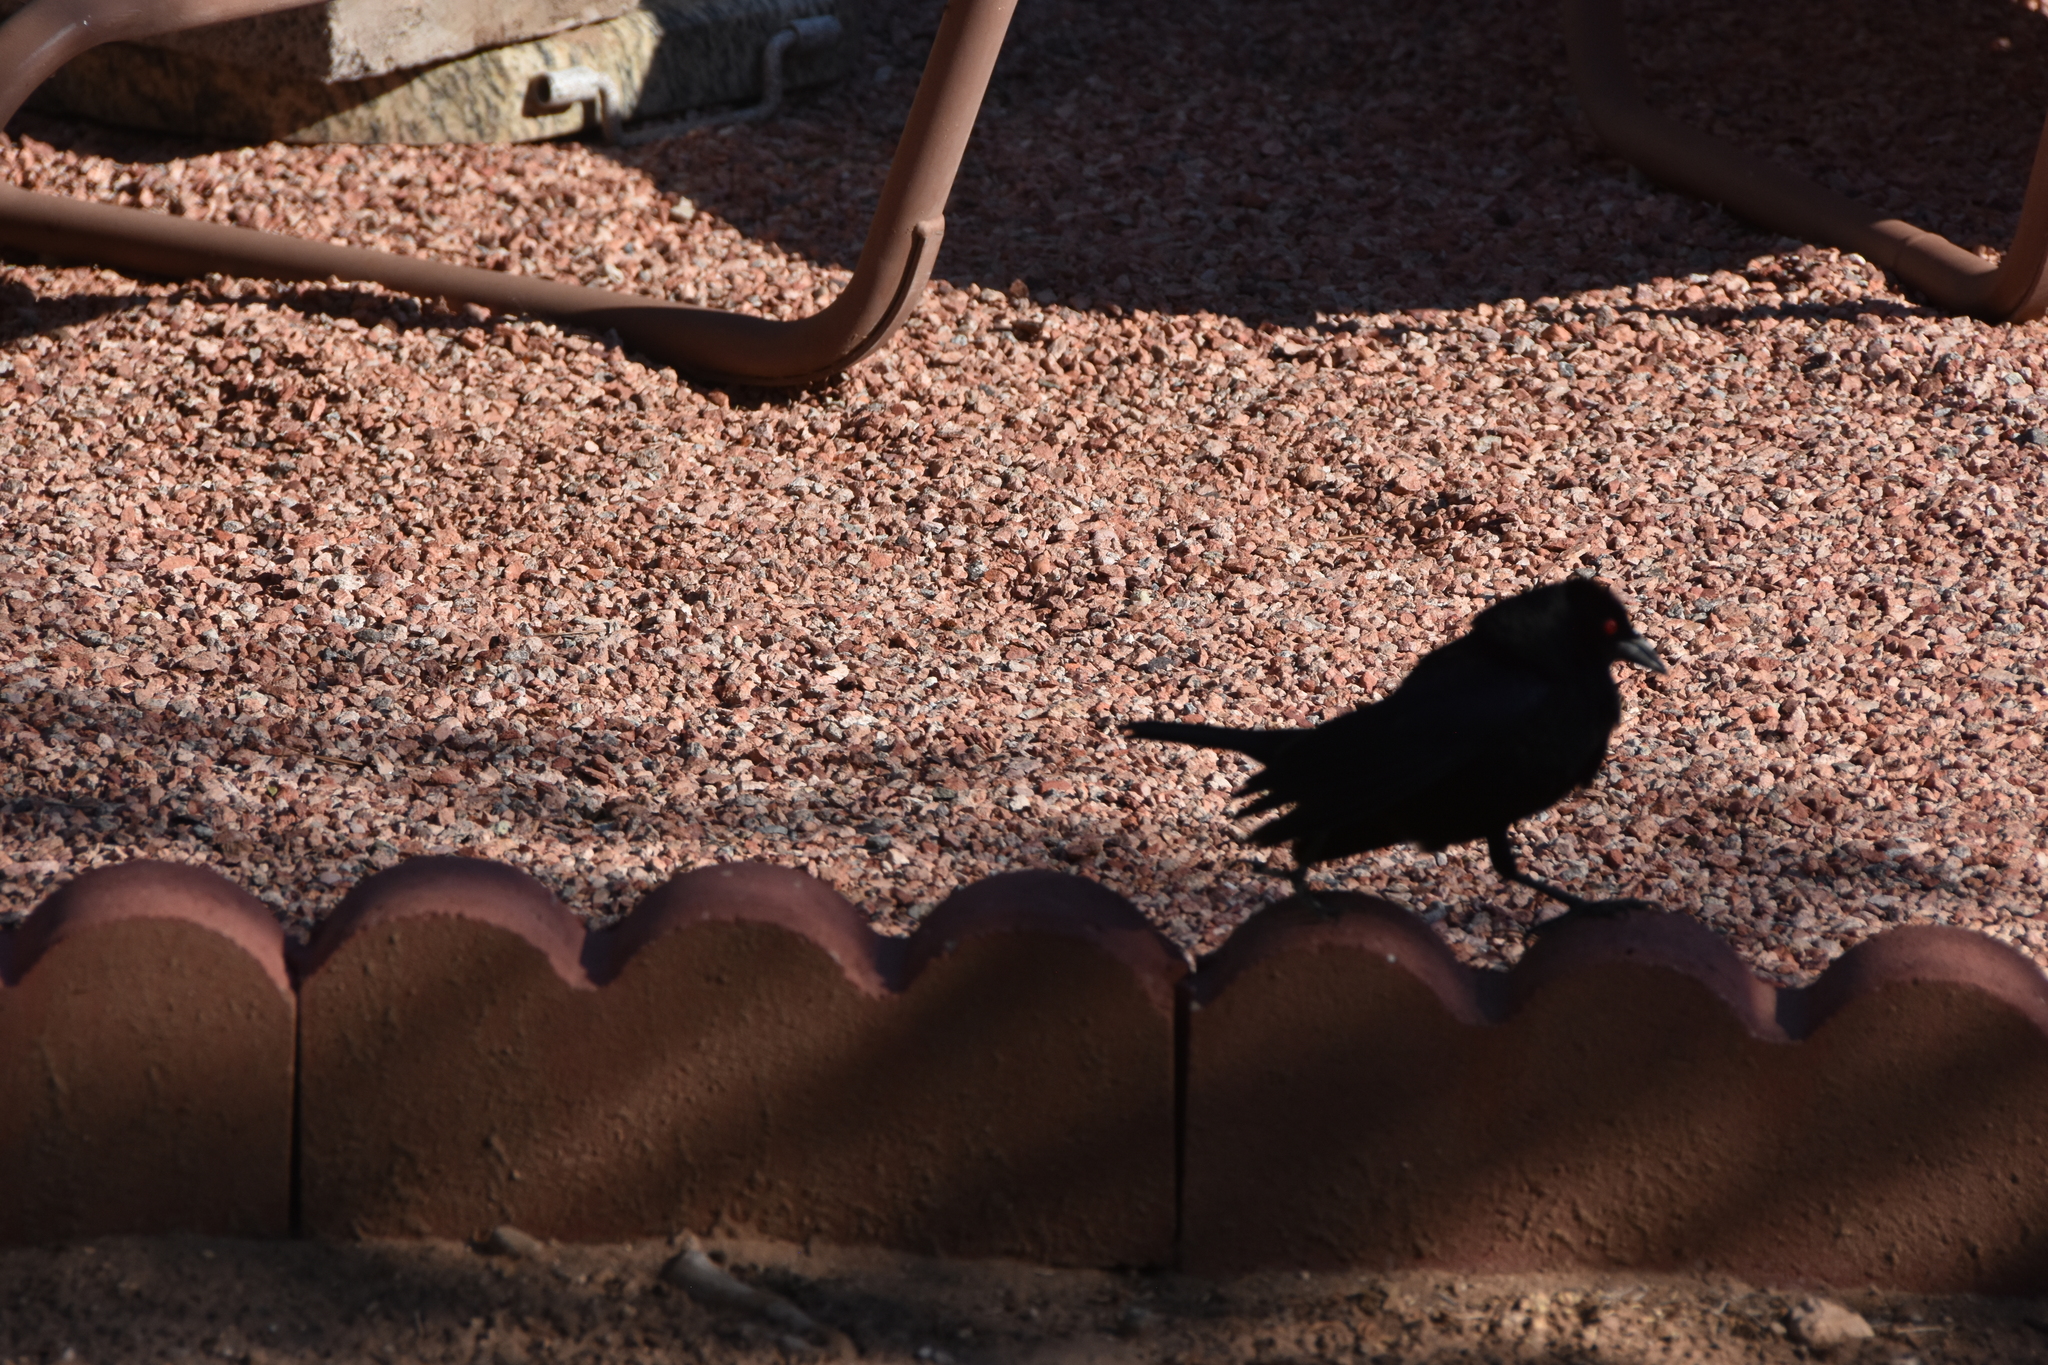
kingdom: Animalia
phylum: Chordata
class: Aves
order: Passeriformes
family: Icteridae
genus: Molothrus
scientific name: Molothrus aeneus
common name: Bronzed cowbird
